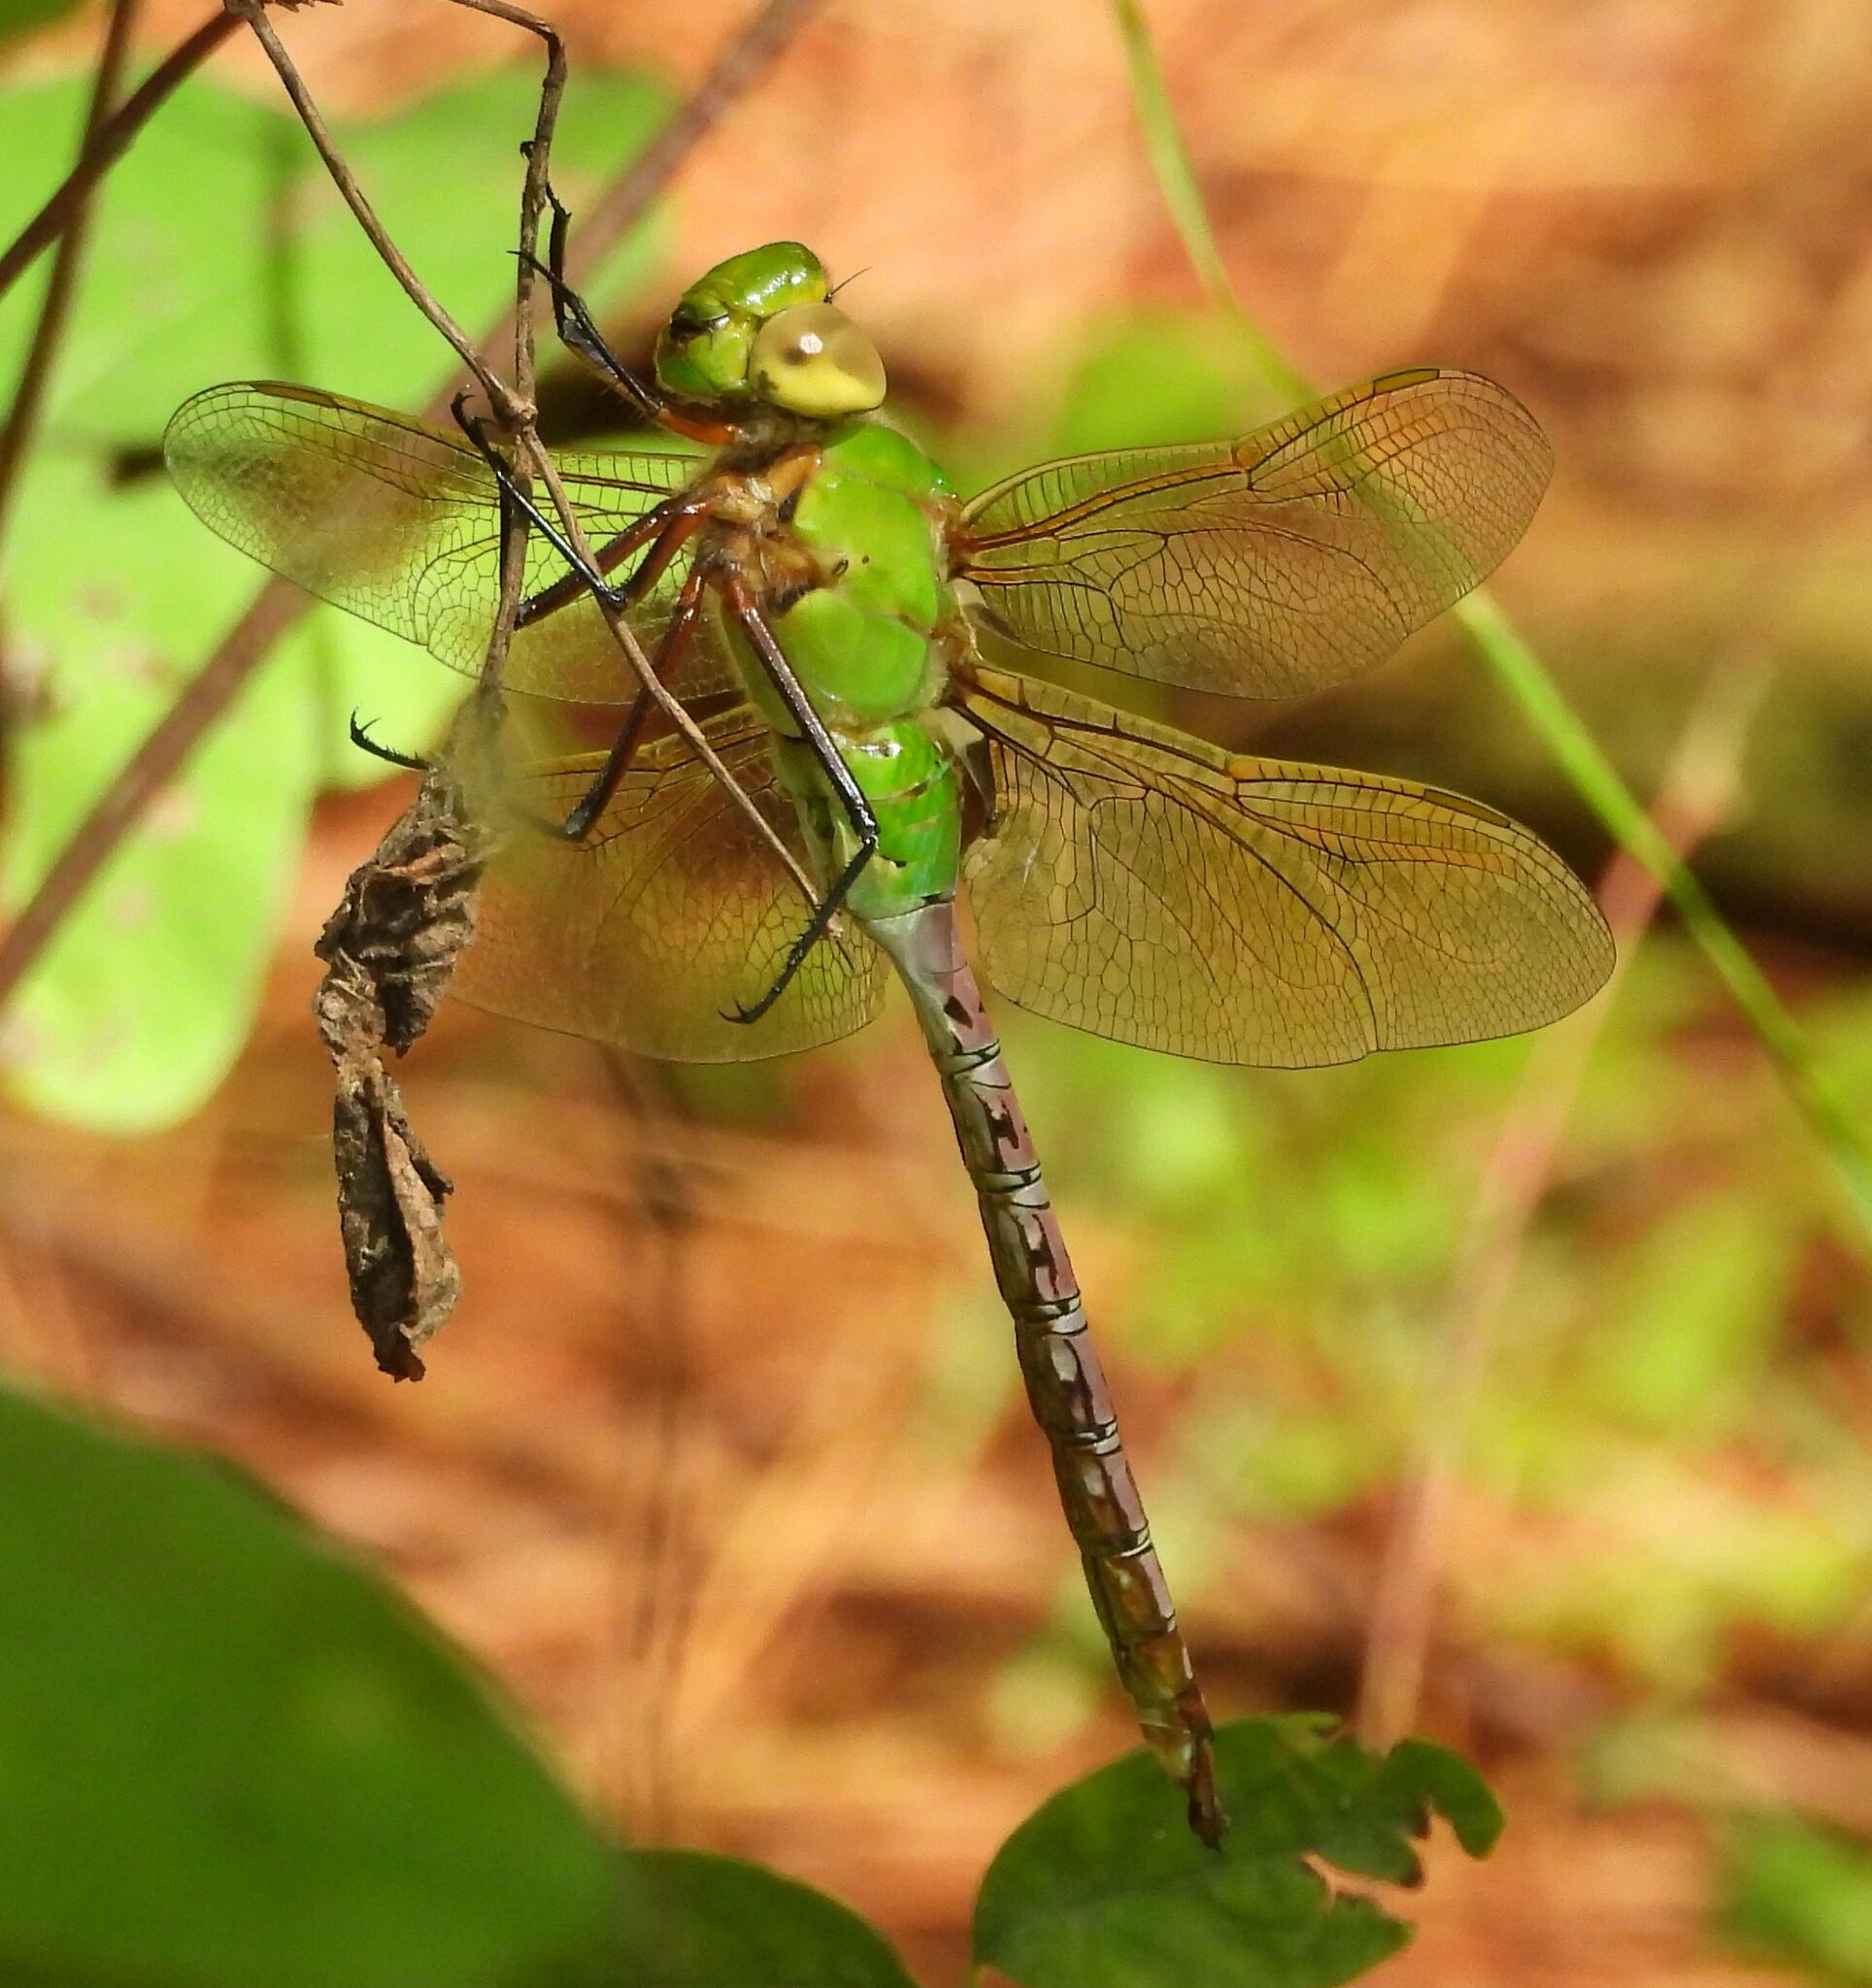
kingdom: Animalia
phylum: Arthropoda
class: Insecta
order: Odonata
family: Aeshnidae
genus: Anax
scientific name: Anax junius
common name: Common green darner
